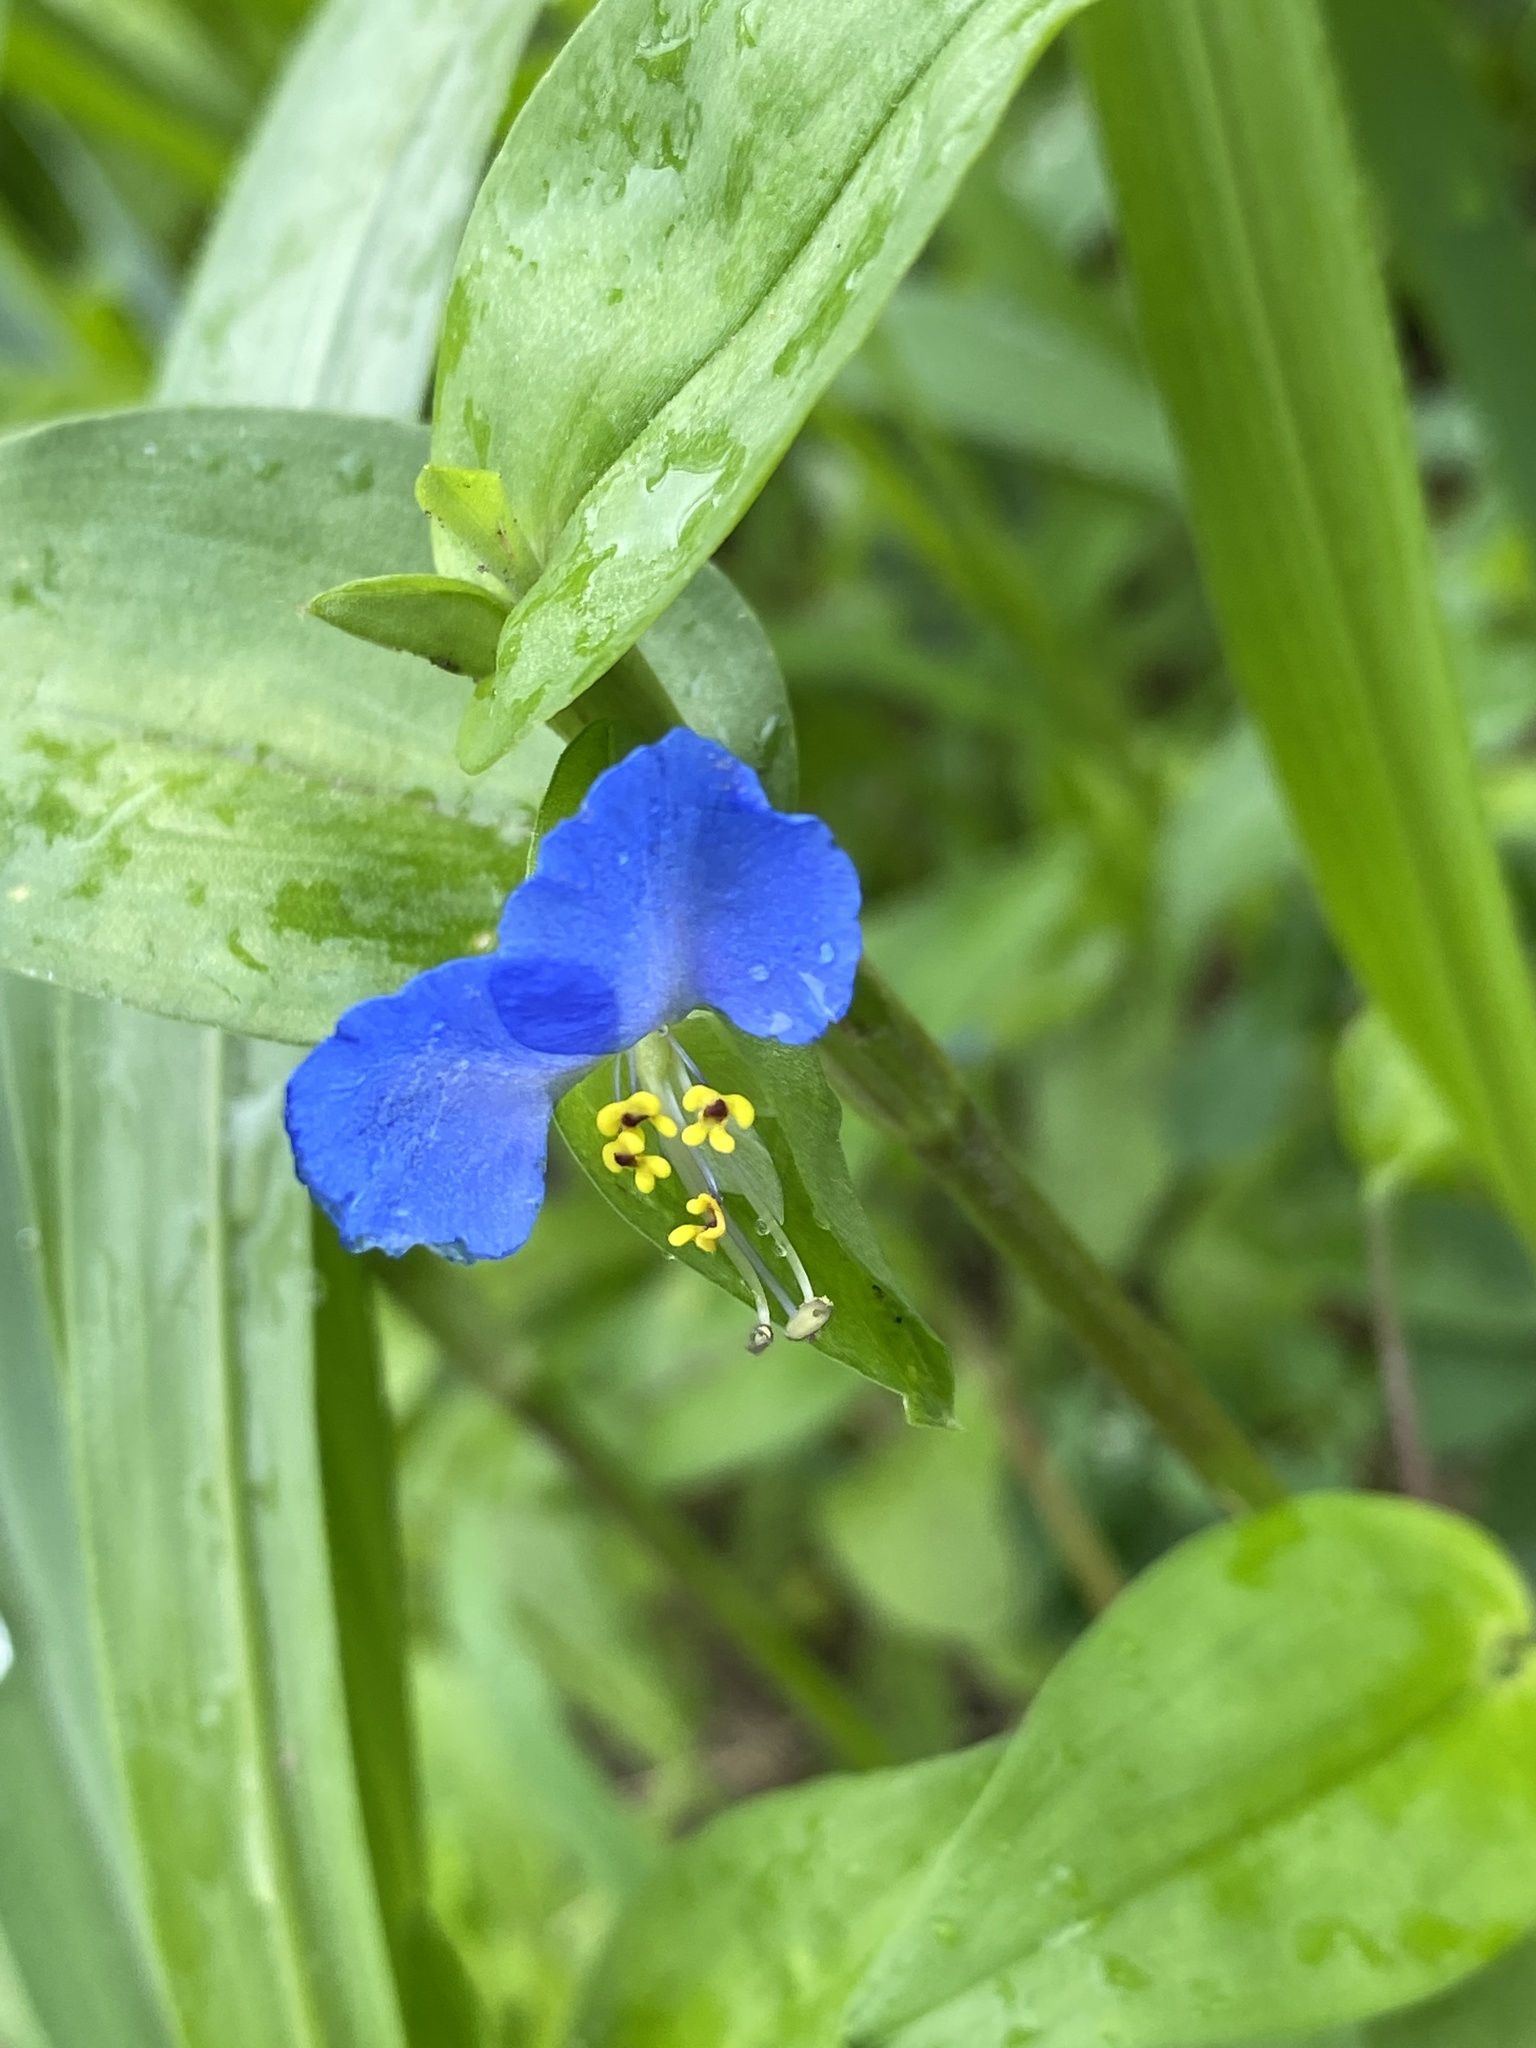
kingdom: Plantae
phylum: Tracheophyta
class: Liliopsida
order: Commelinales
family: Commelinaceae
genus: Commelina
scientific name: Commelina communis
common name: Asiatic dayflower
